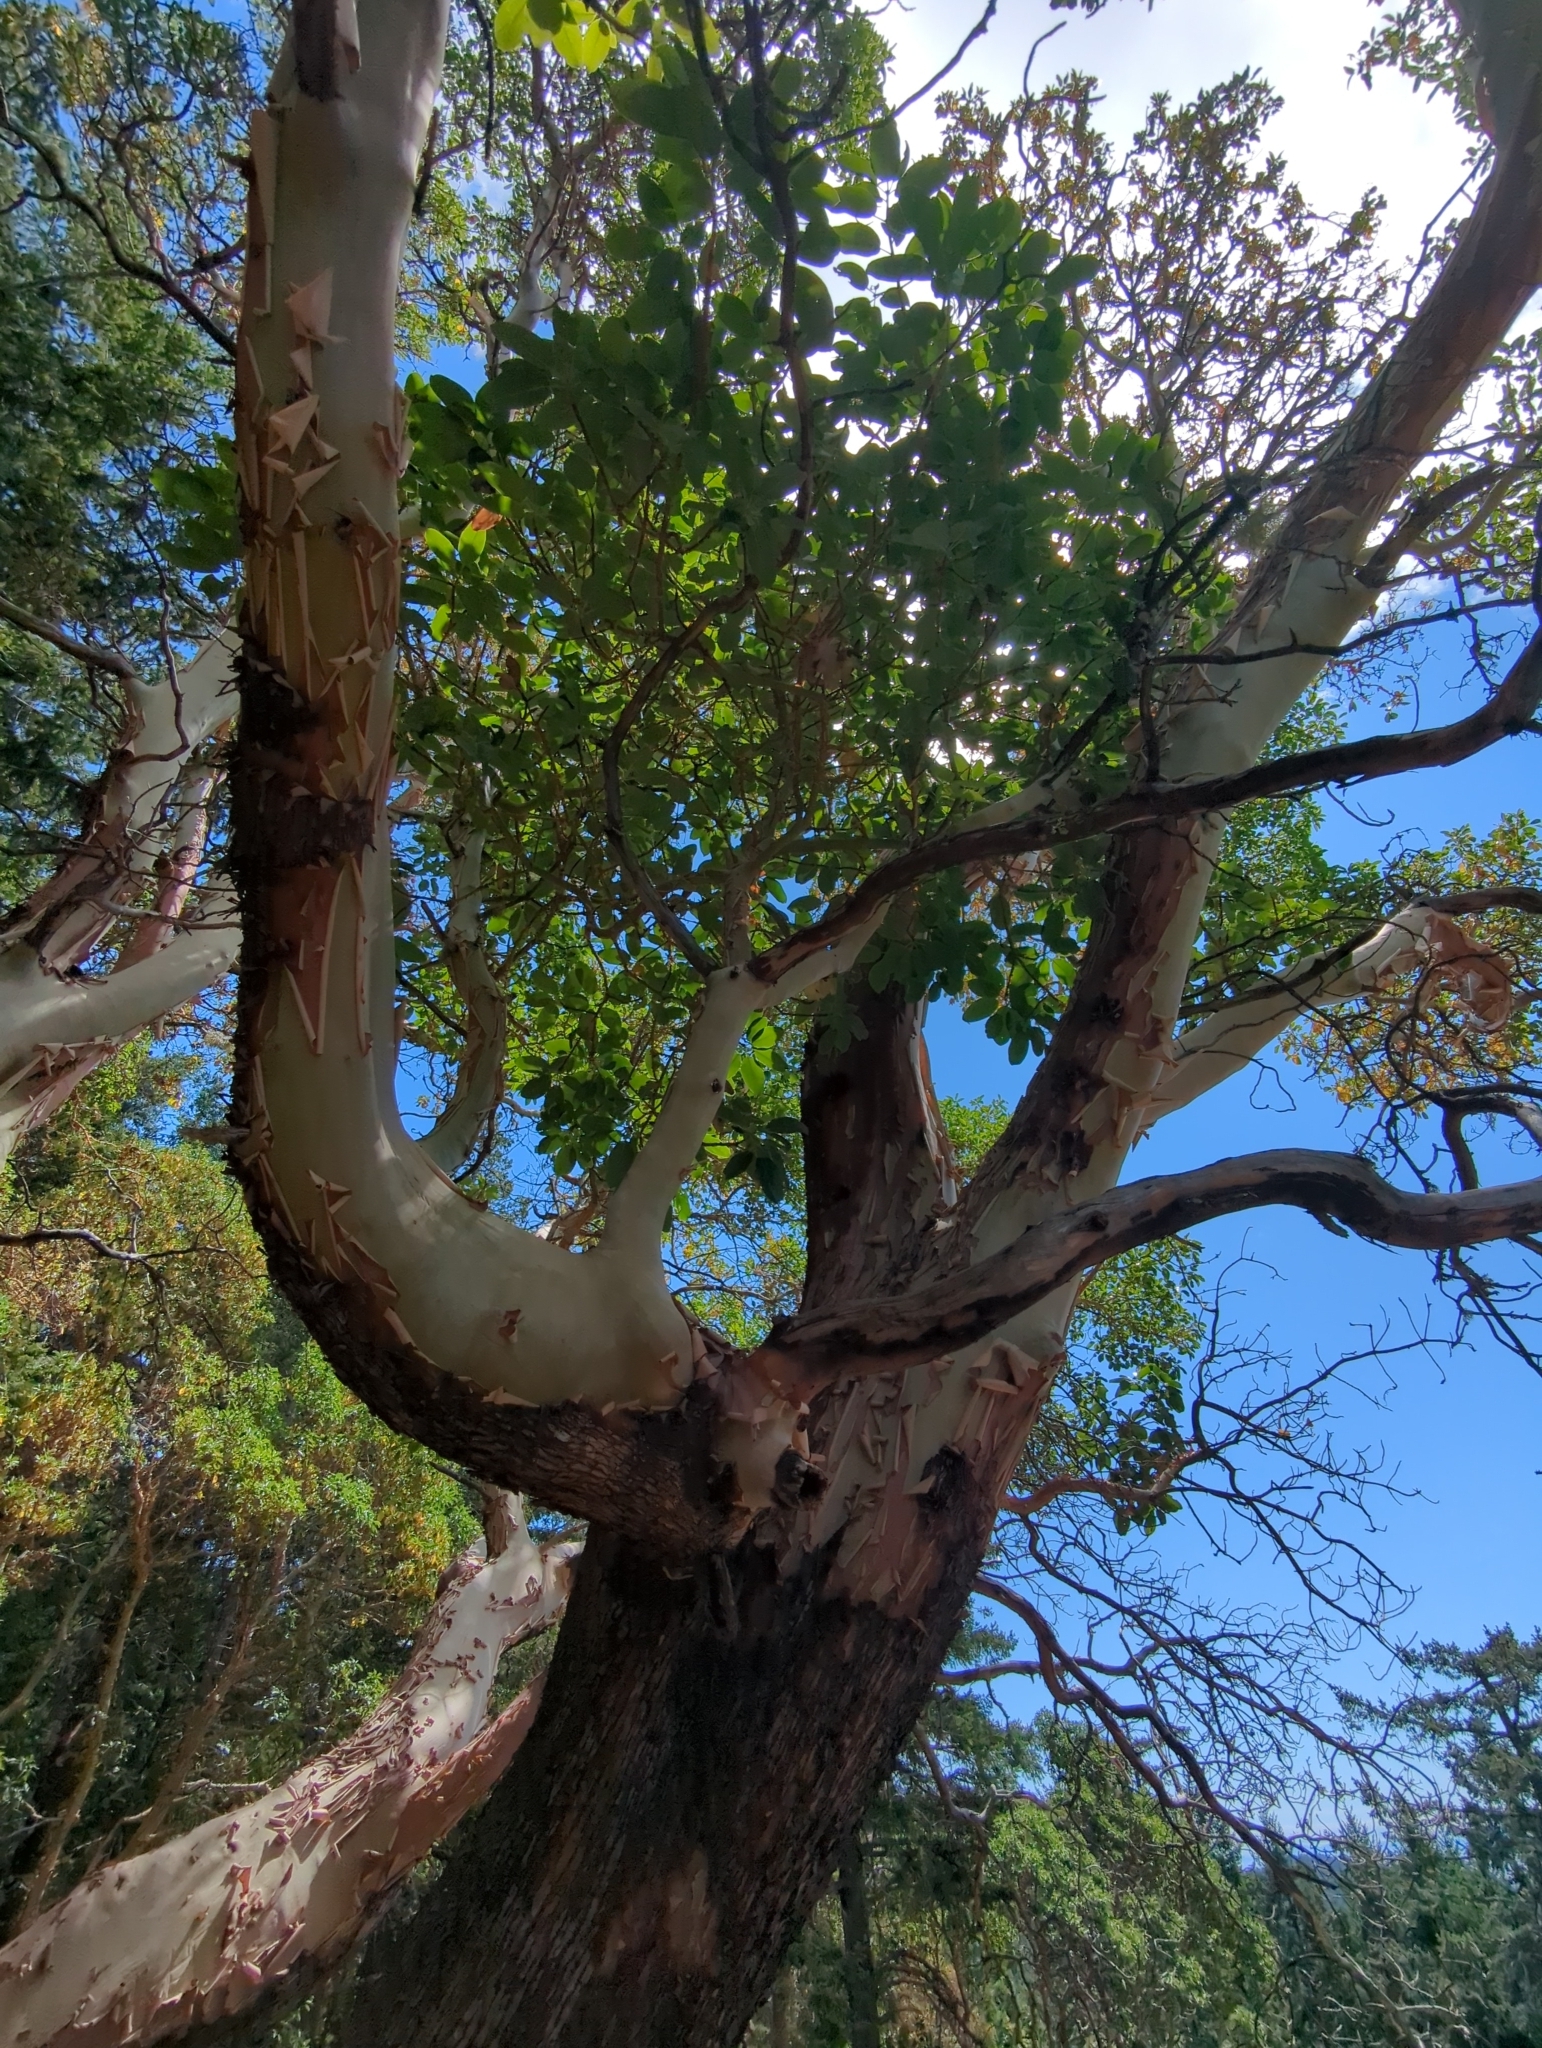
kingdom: Plantae
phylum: Tracheophyta
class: Magnoliopsida
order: Ericales
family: Ericaceae
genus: Arbutus
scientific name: Arbutus menziesii
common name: Pacific madrone
